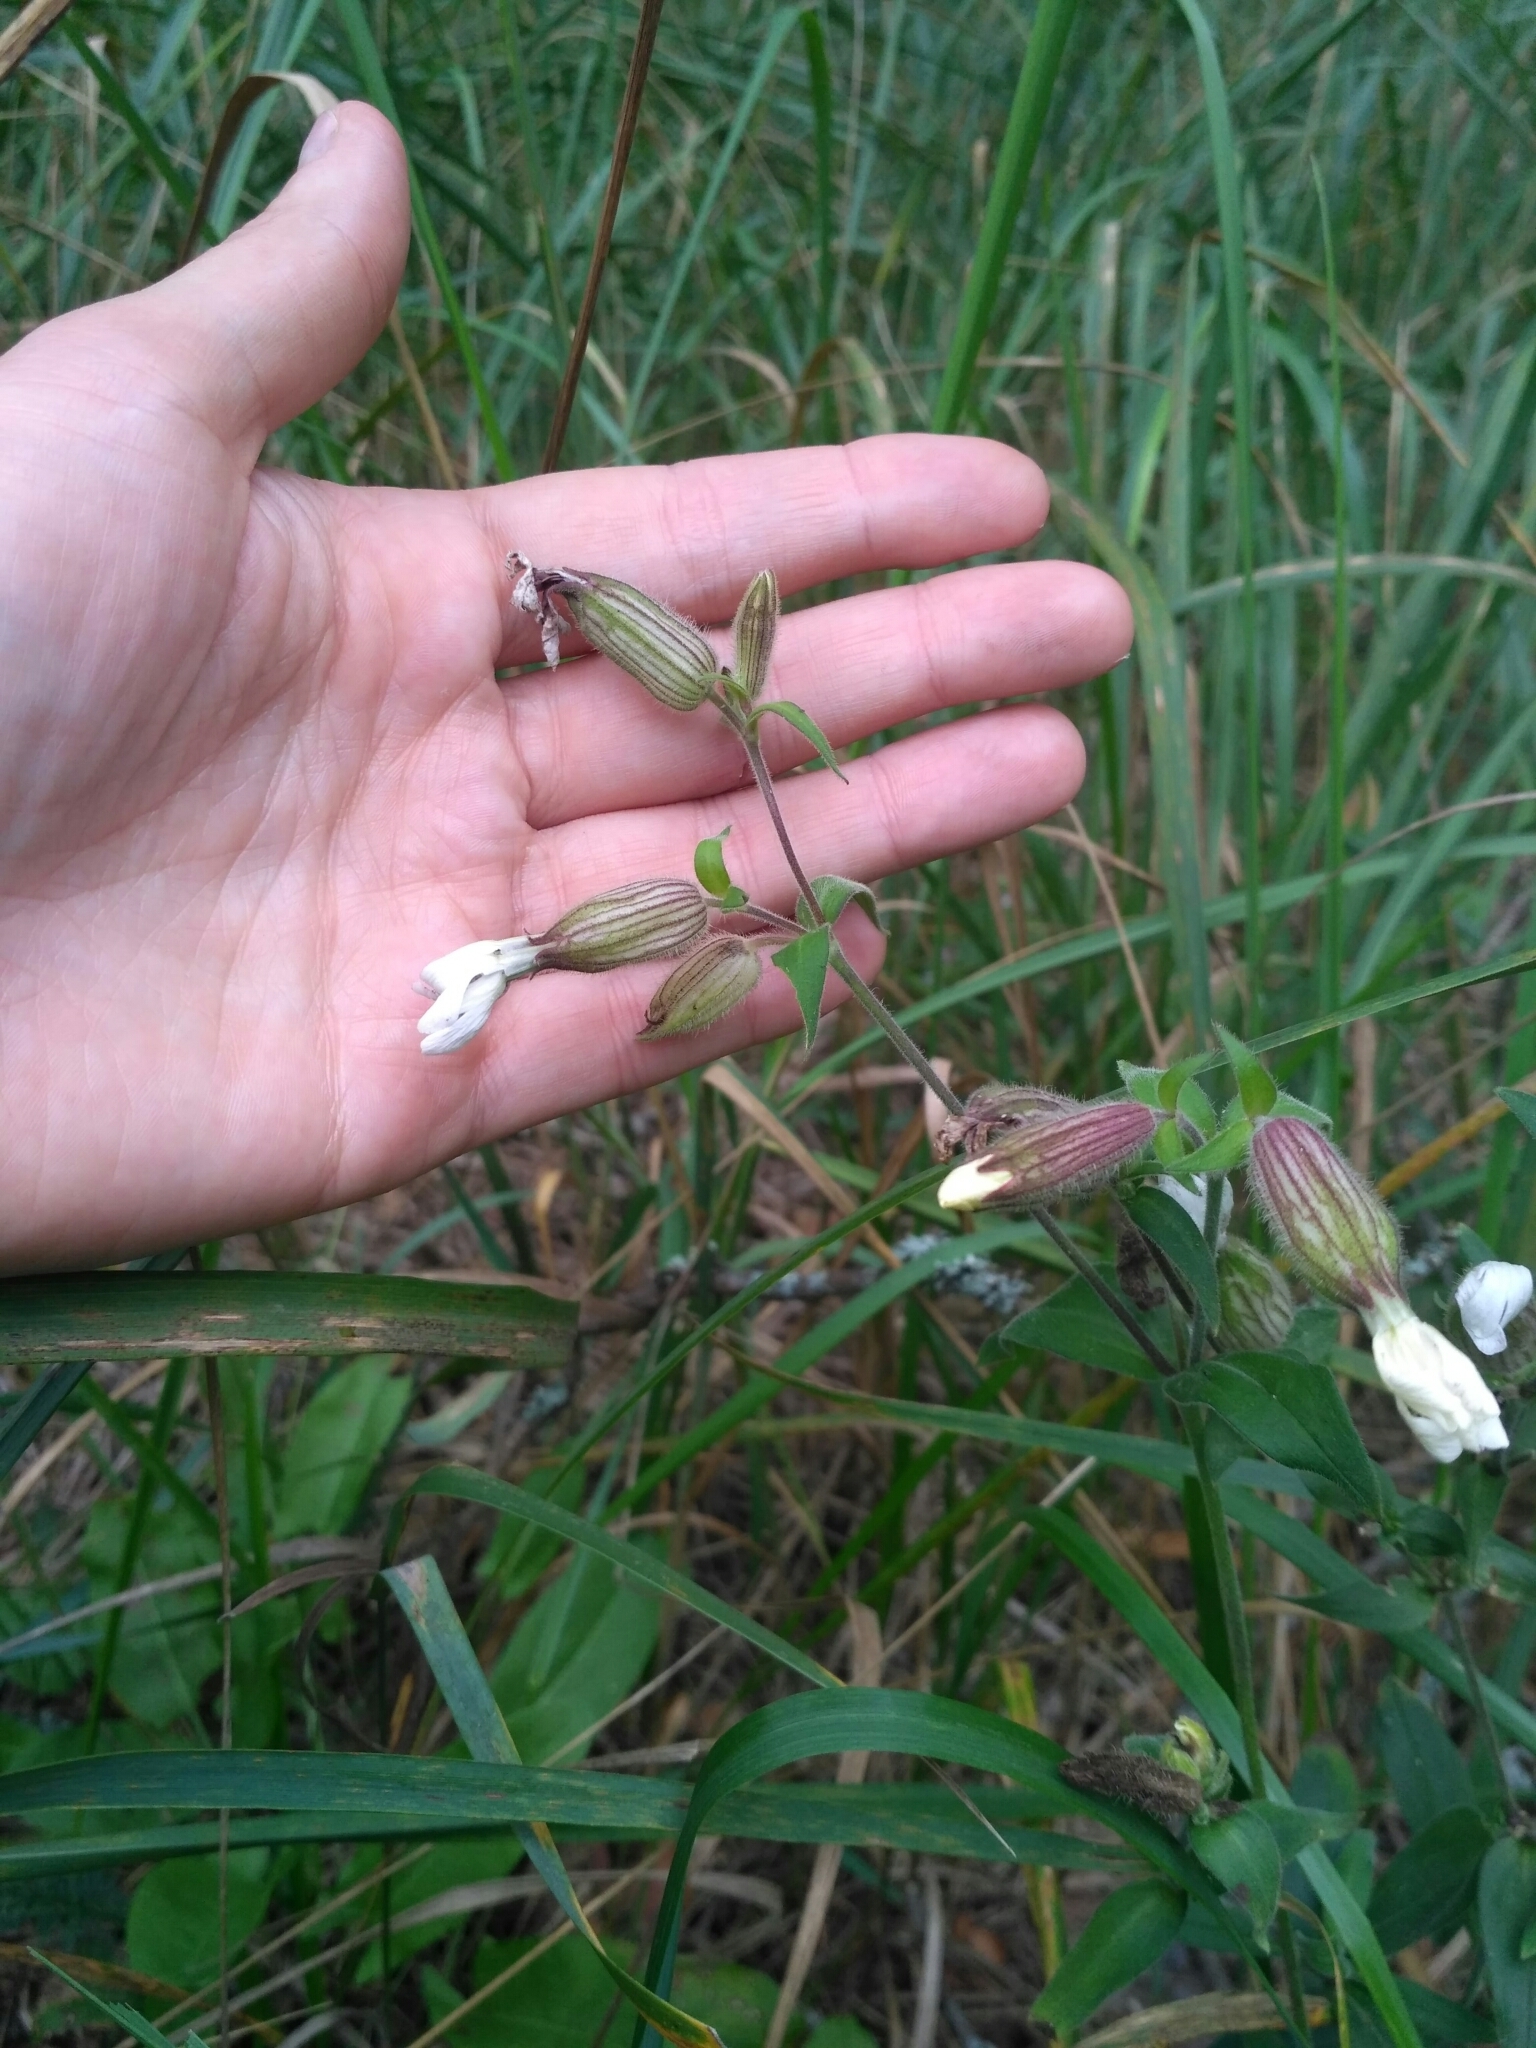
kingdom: Plantae
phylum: Tracheophyta
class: Magnoliopsida
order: Caryophyllales
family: Caryophyllaceae
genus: Silene
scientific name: Silene latifolia
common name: White campion
